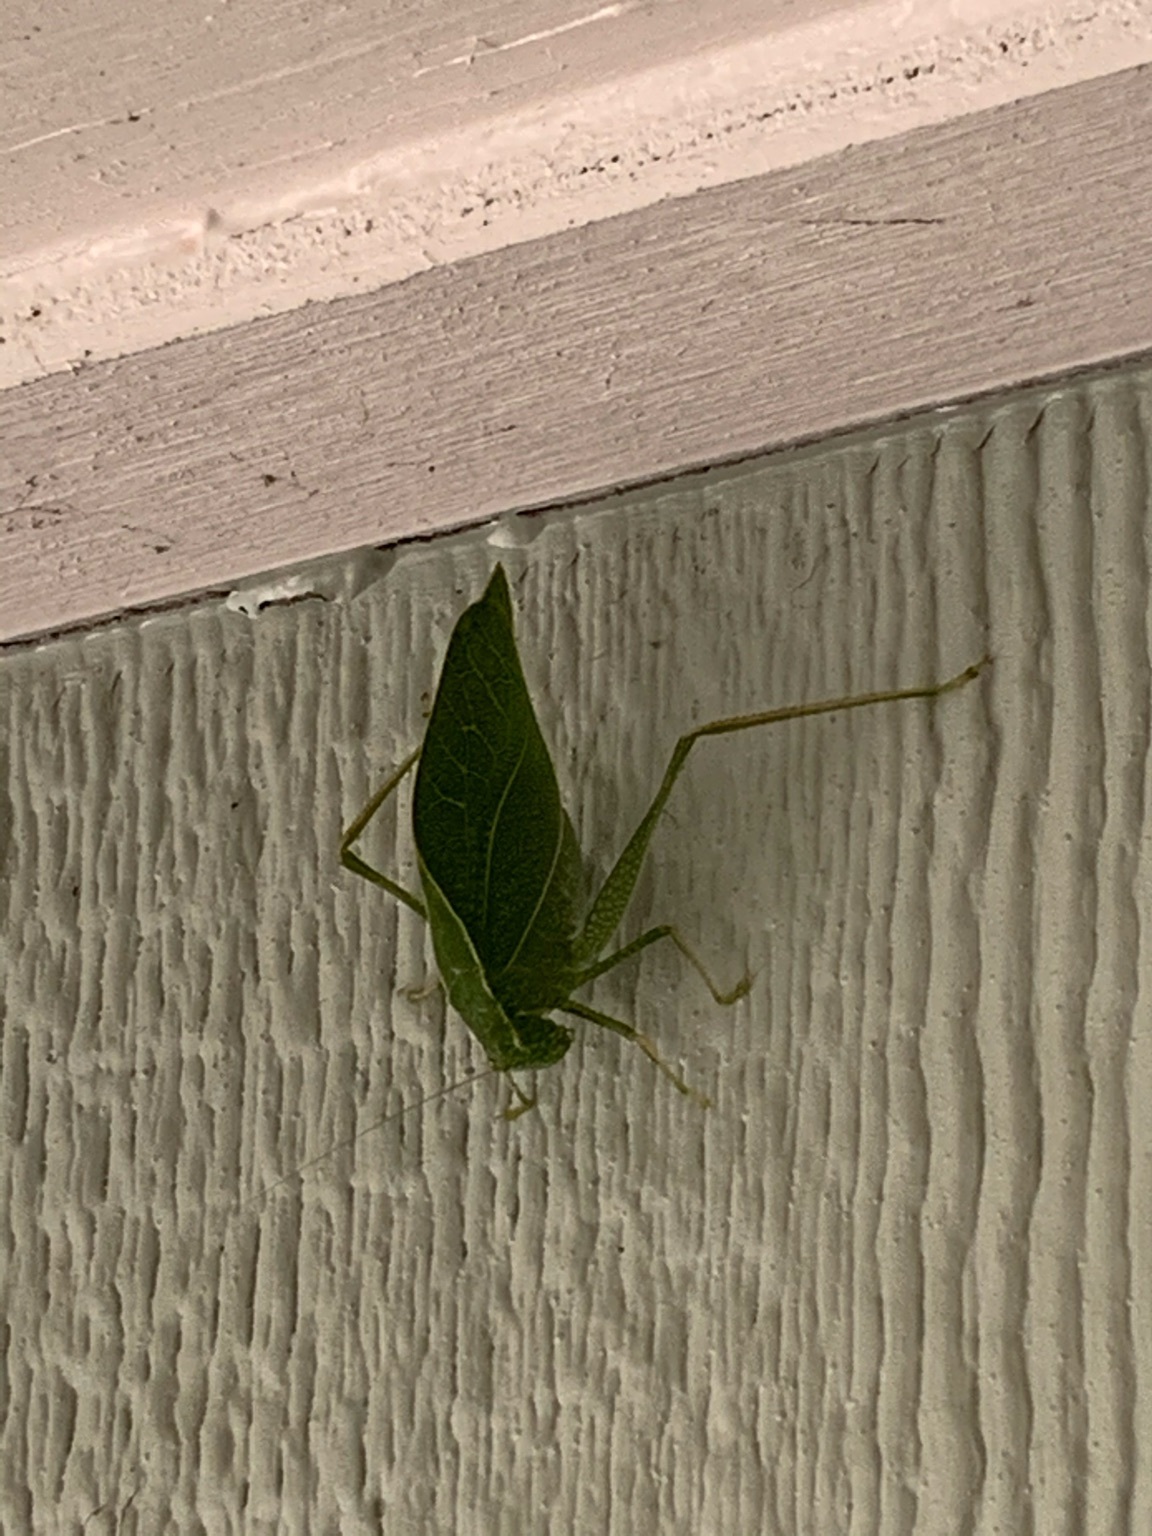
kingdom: Animalia
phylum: Arthropoda
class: Insecta
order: Orthoptera
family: Tettigoniidae
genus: Microcentrum
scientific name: Microcentrum rhombifolium
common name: Broad-winged katydid
